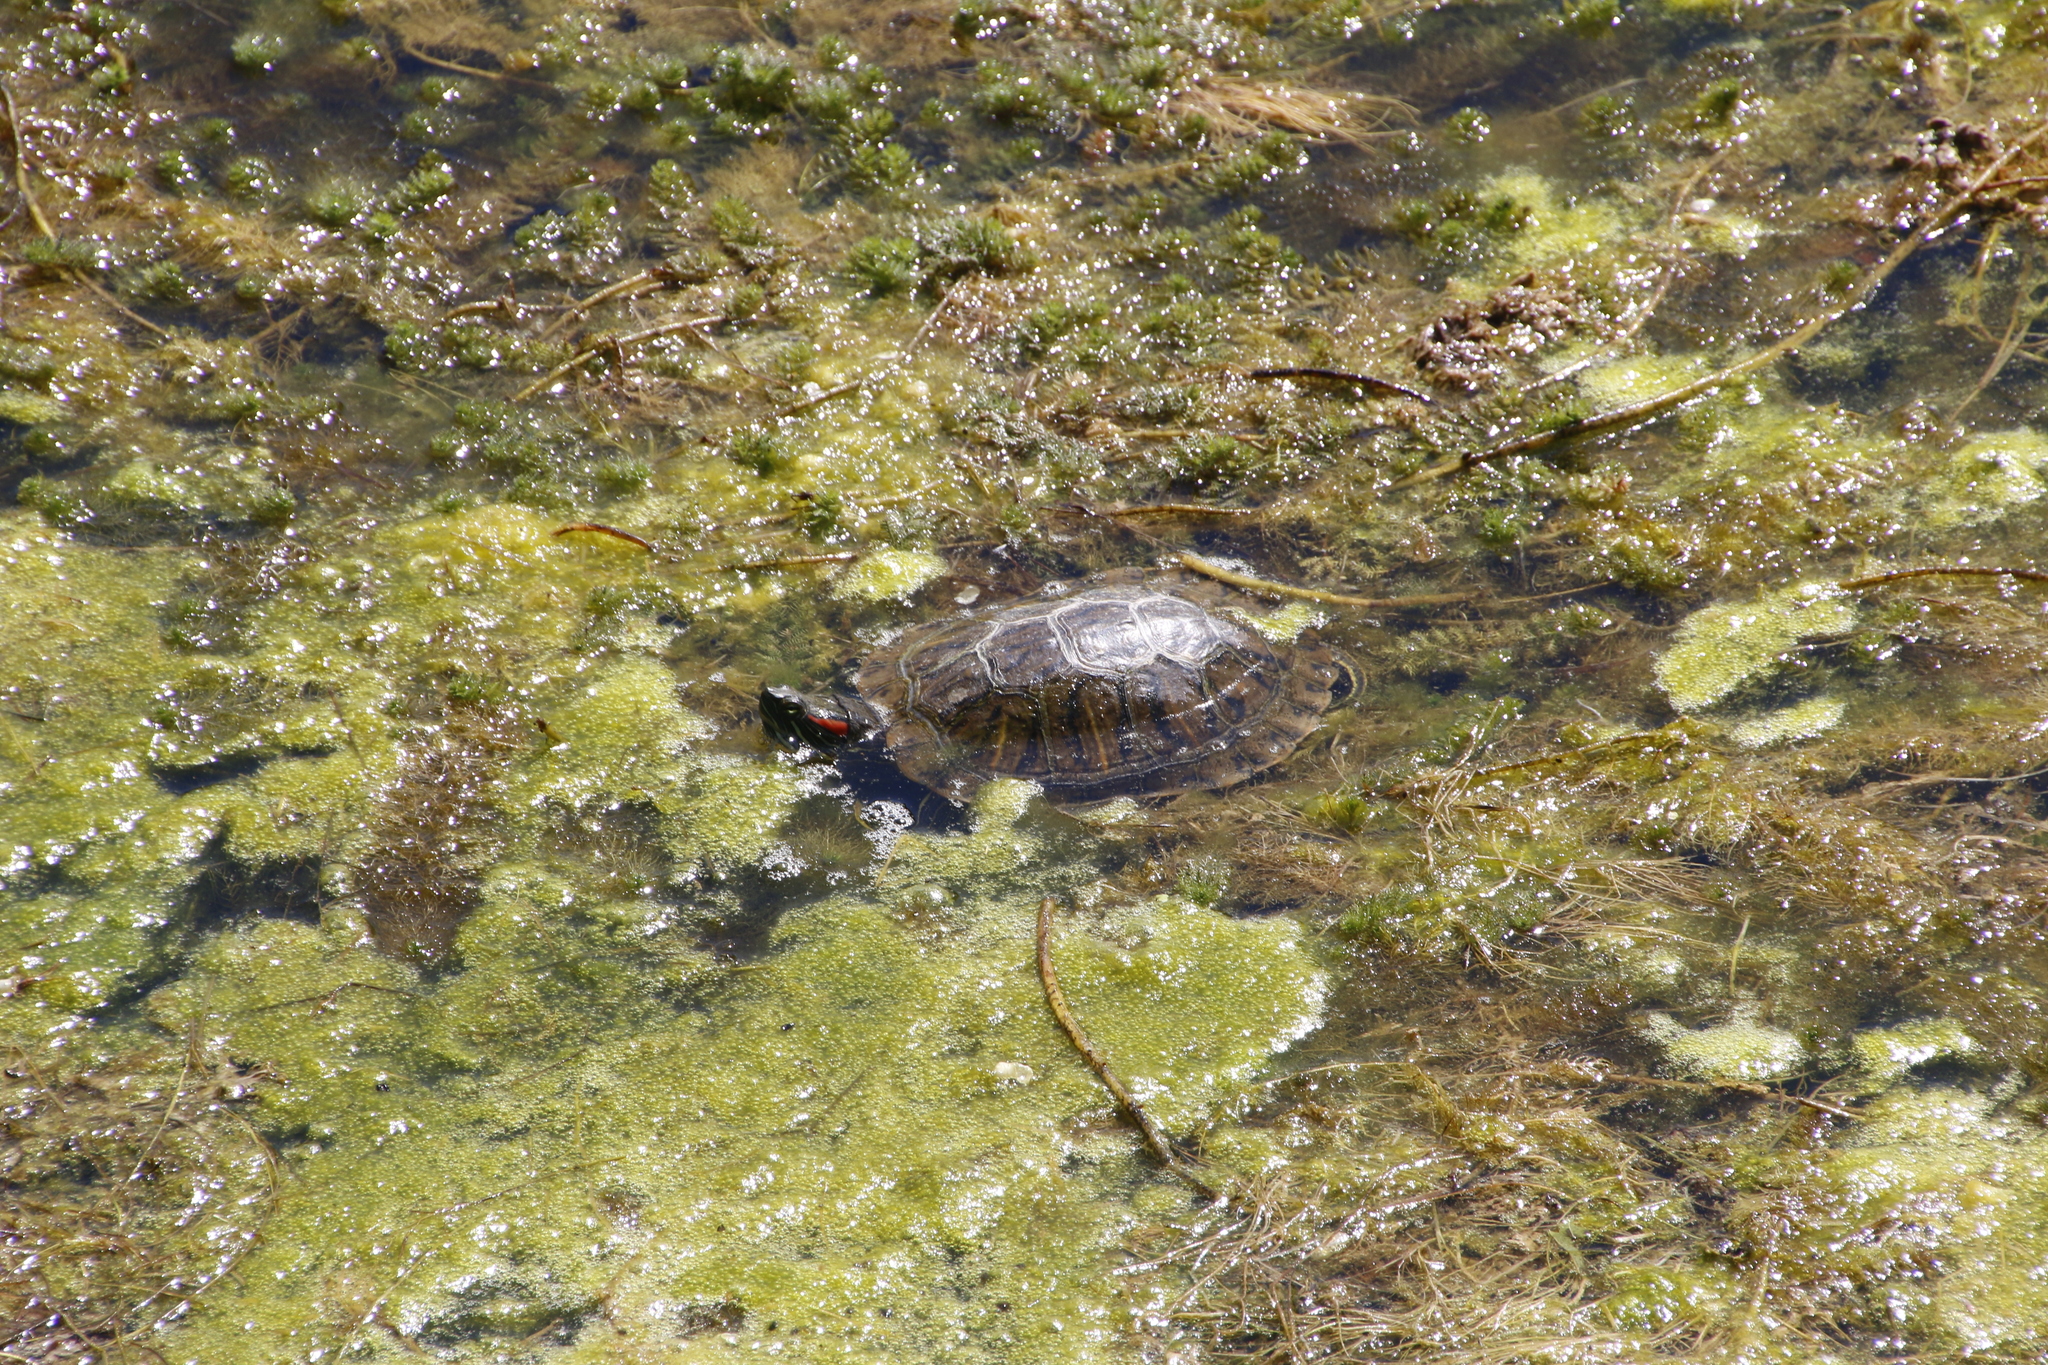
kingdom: Animalia
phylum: Chordata
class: Testudines
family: Emydidae
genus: Trachemys
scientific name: Trachemys scripta
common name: Slider
